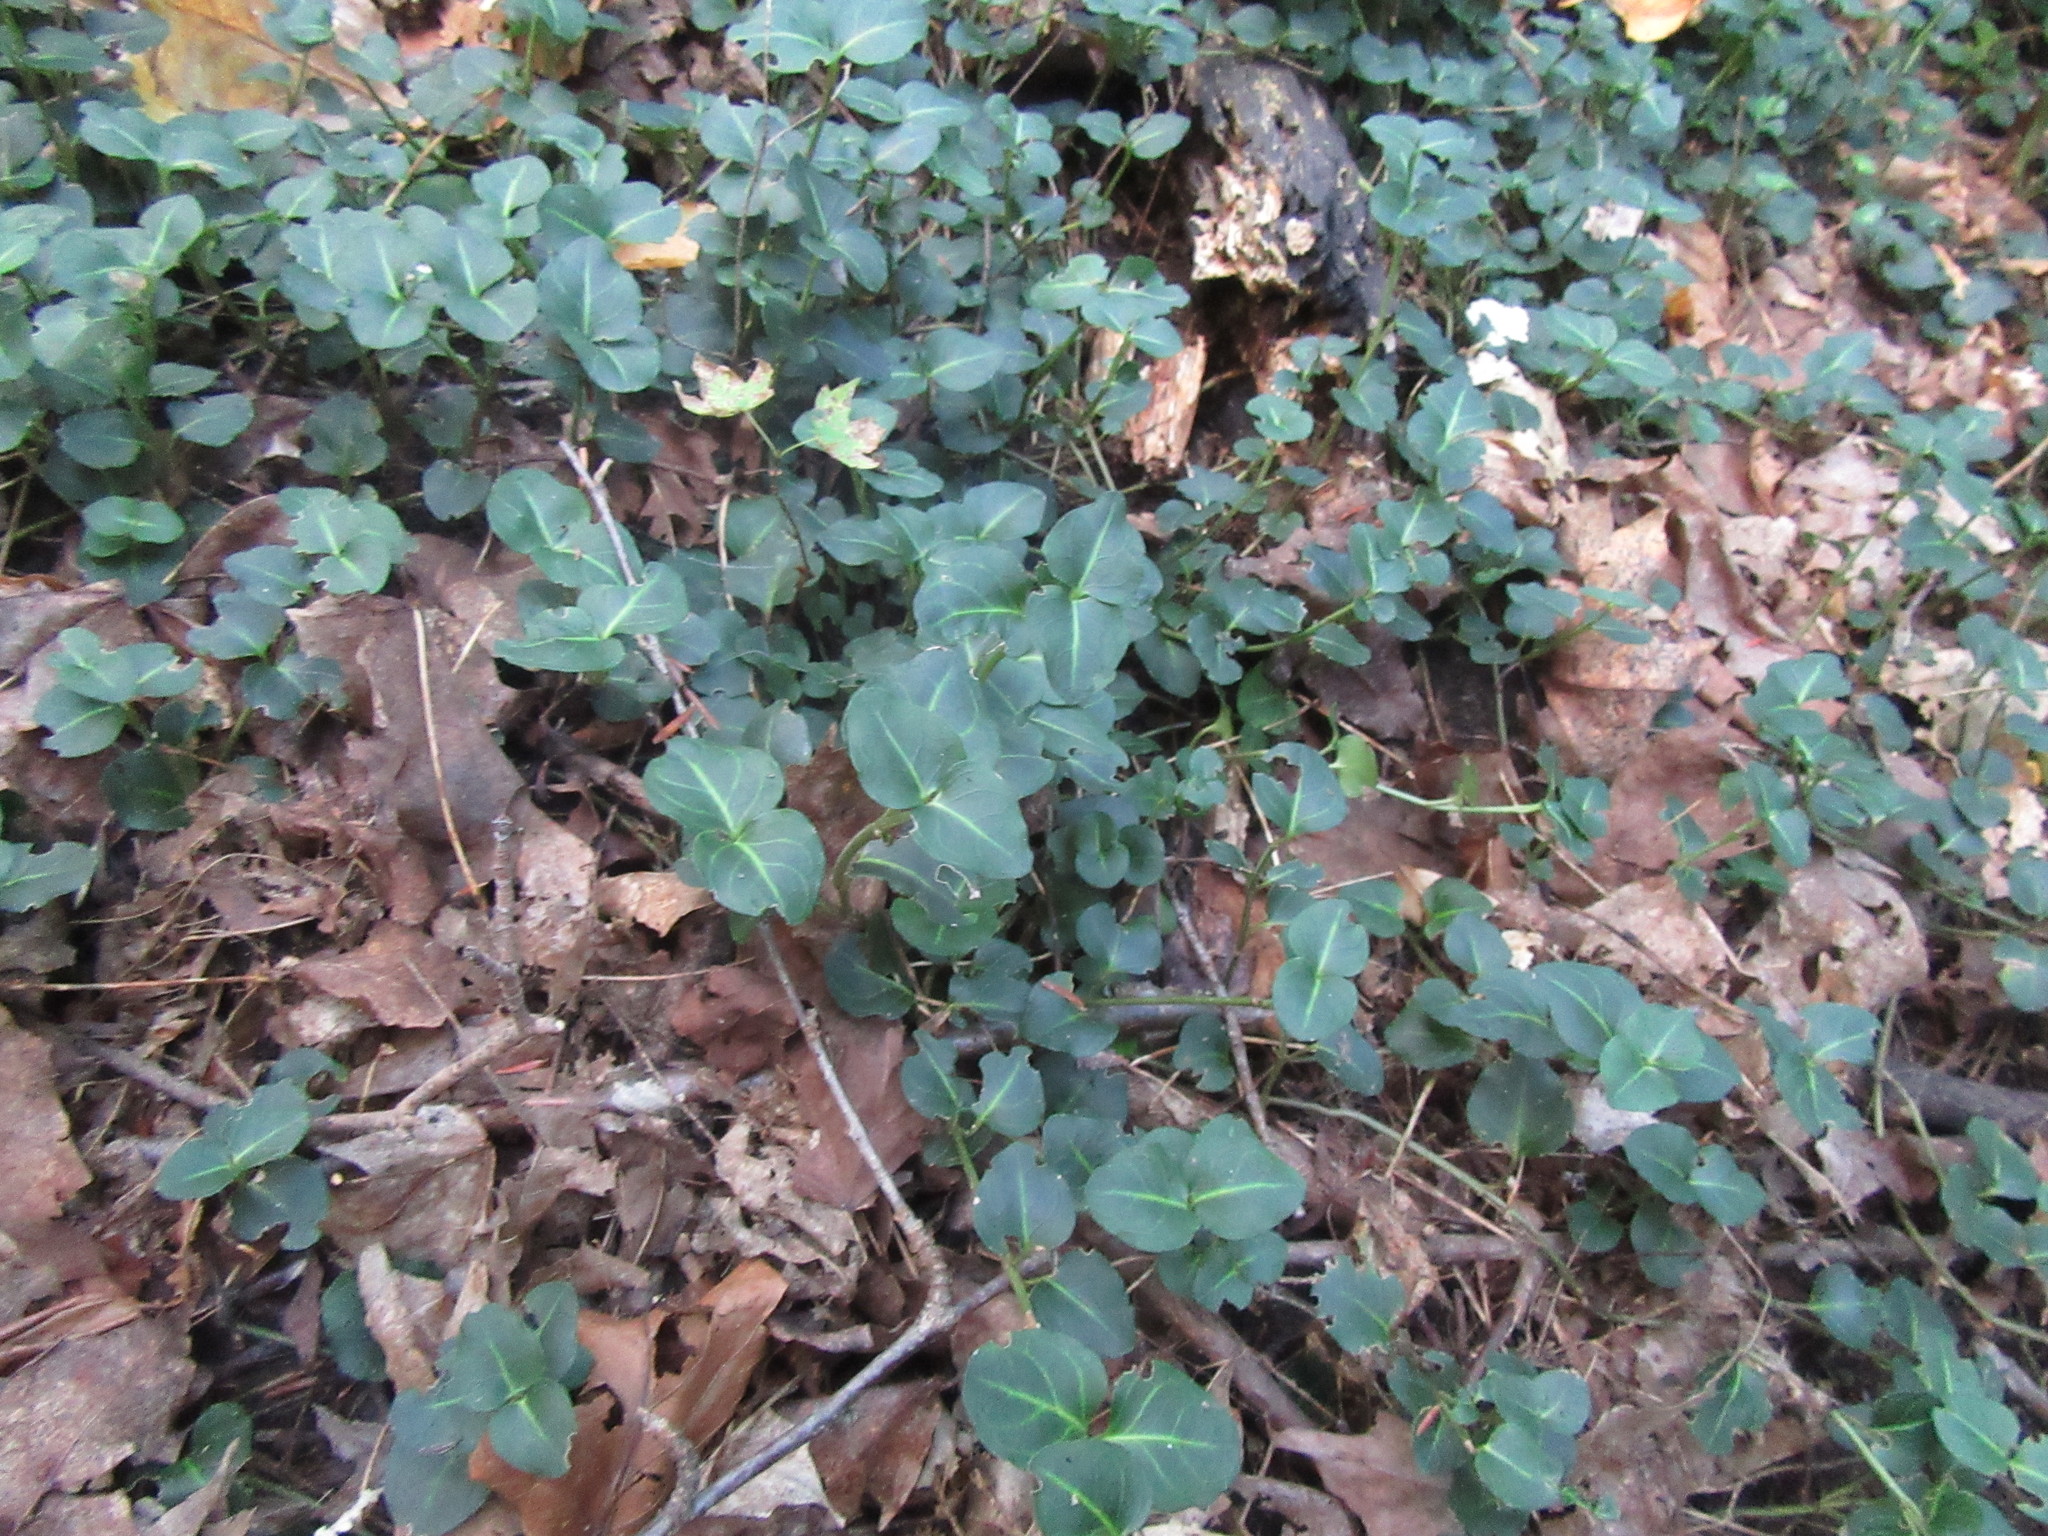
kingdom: Plantae
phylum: Tracheophyta
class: Magnoliopsida
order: Gentianales
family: Rubiaceae
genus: Mitchella
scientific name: Mitchella repens
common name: Partridge-berry
